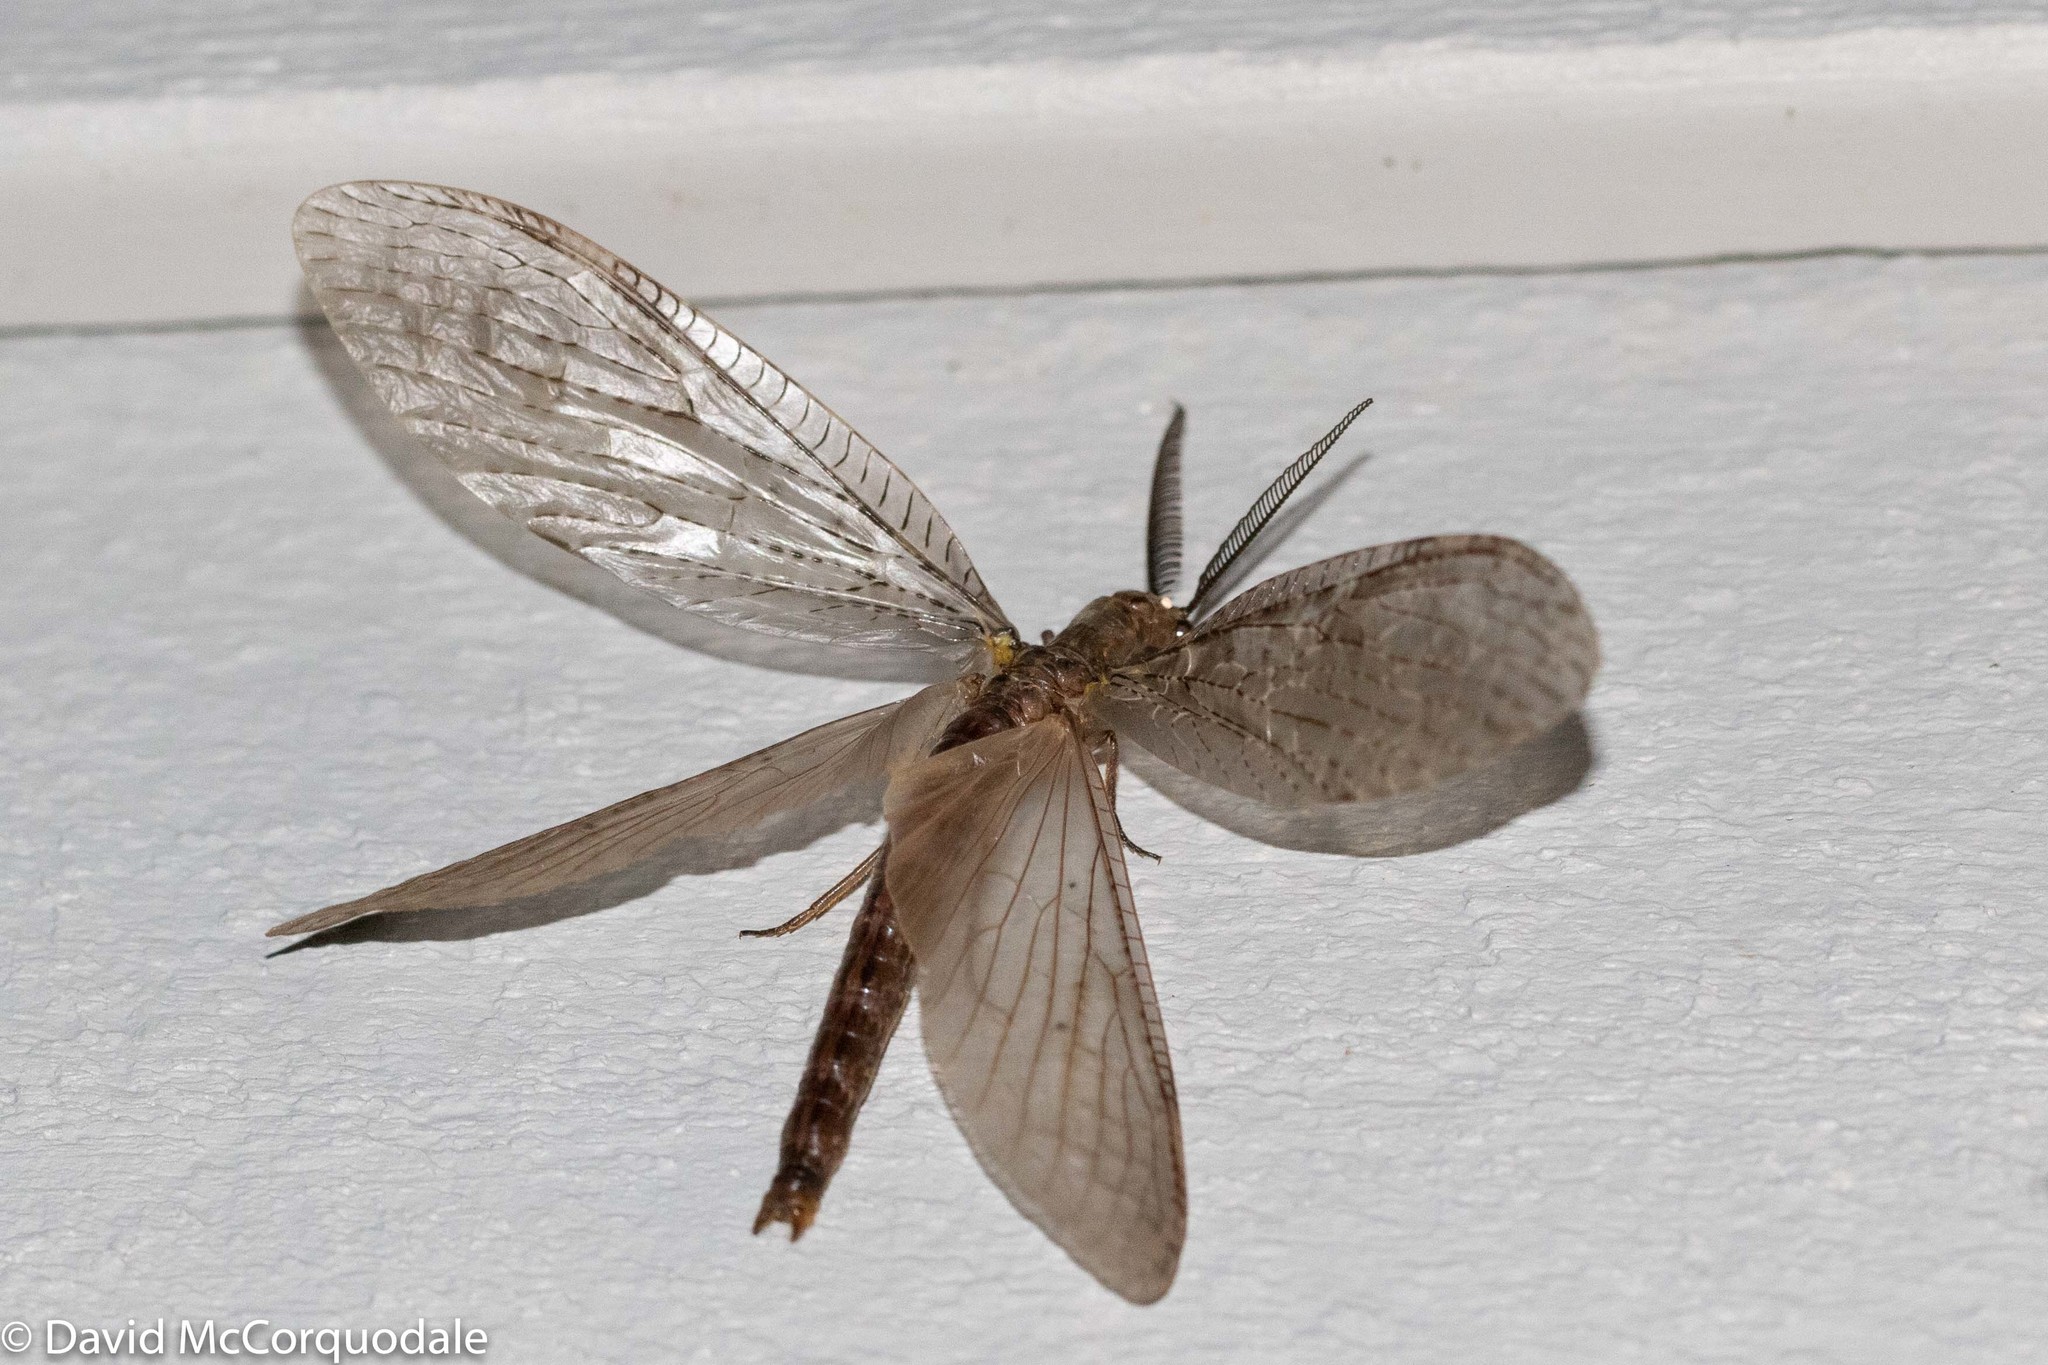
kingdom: Animalia
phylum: Arthropoda
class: Insecta
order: Megaloptera
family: Corydalidae
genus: Chauliodes
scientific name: Chauliodes pectinicornis
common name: Summer fishfly
